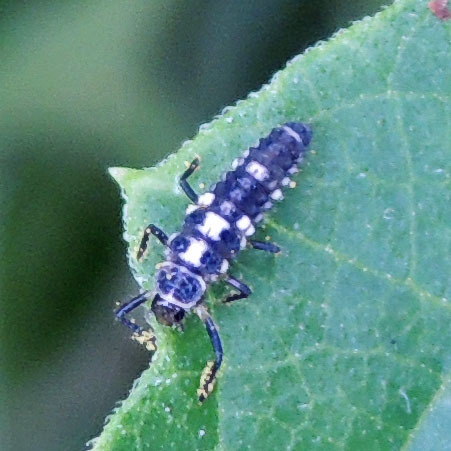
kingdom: Animalia
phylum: Arthropoda
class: Insecta
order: Coleoptera
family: Coccinellidae
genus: Cycloneda
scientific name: Cycloneda munda
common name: Polished lady beetle
